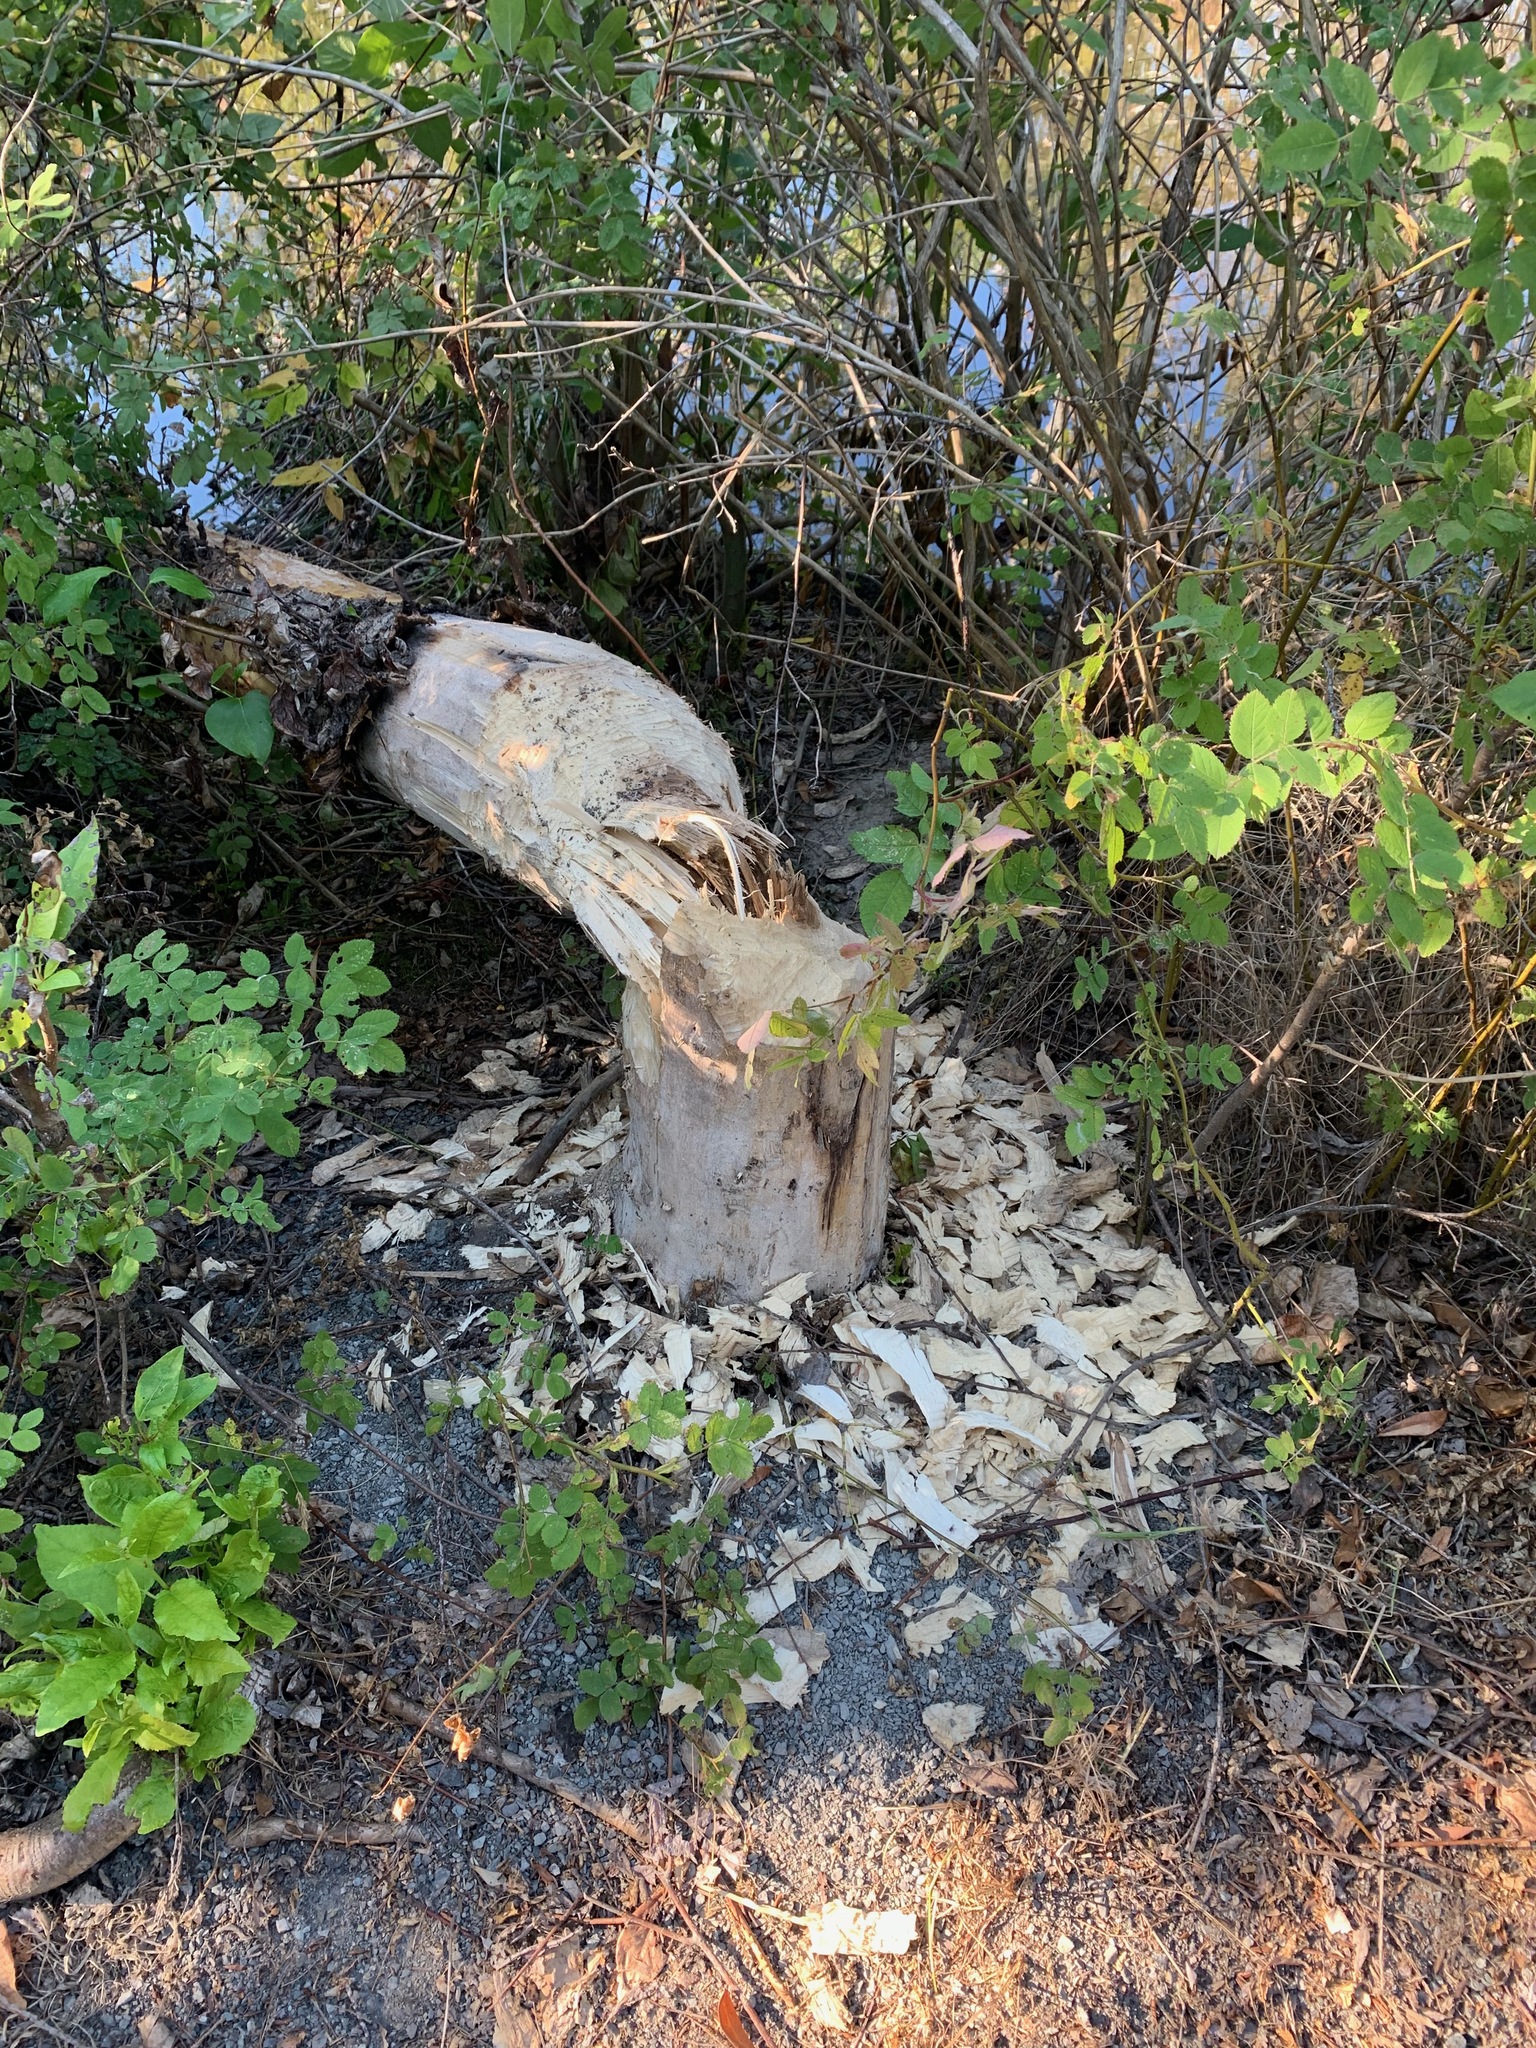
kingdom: Animalia
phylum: Chordata
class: Mammalia
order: Rodentia
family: Castoridae
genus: Castor
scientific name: Castor canadensis
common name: American beaver
